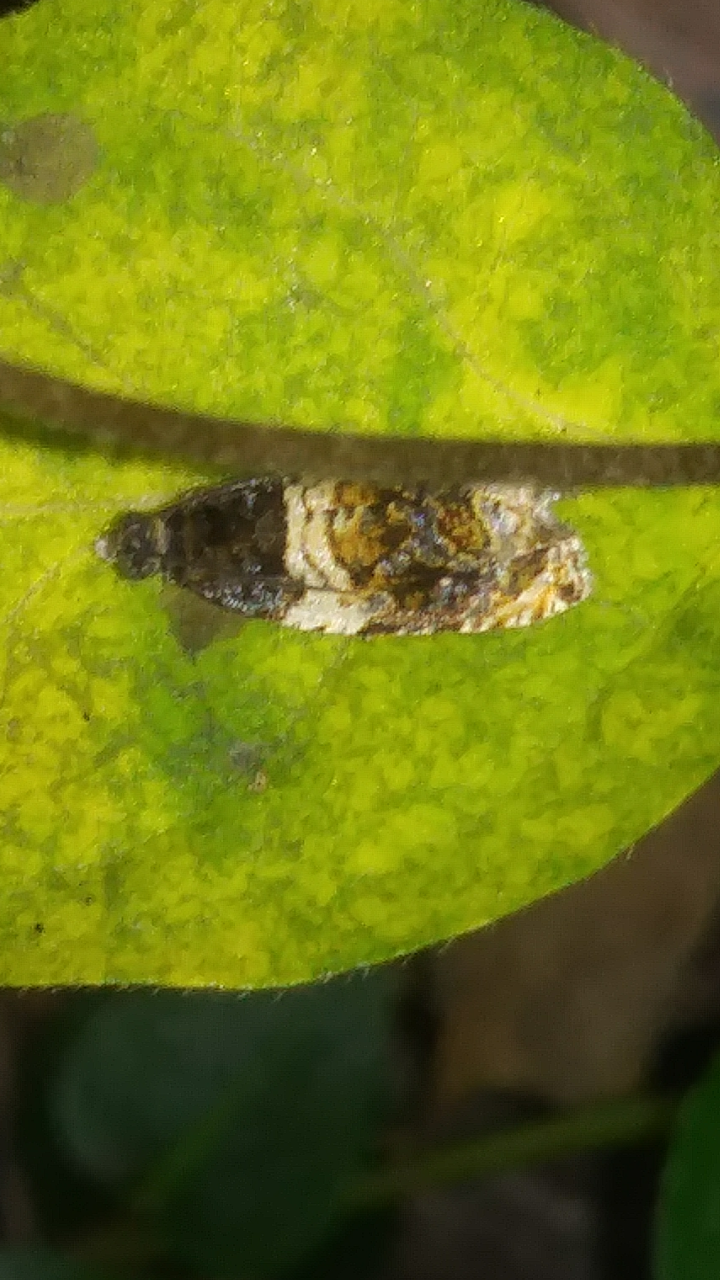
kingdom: Animalia
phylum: Arthropoda
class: Insecta
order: Lepidoptera
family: Tortricidae
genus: Olethreutes
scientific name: Olethreutes fasciatana
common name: Banded olethreutes moth
